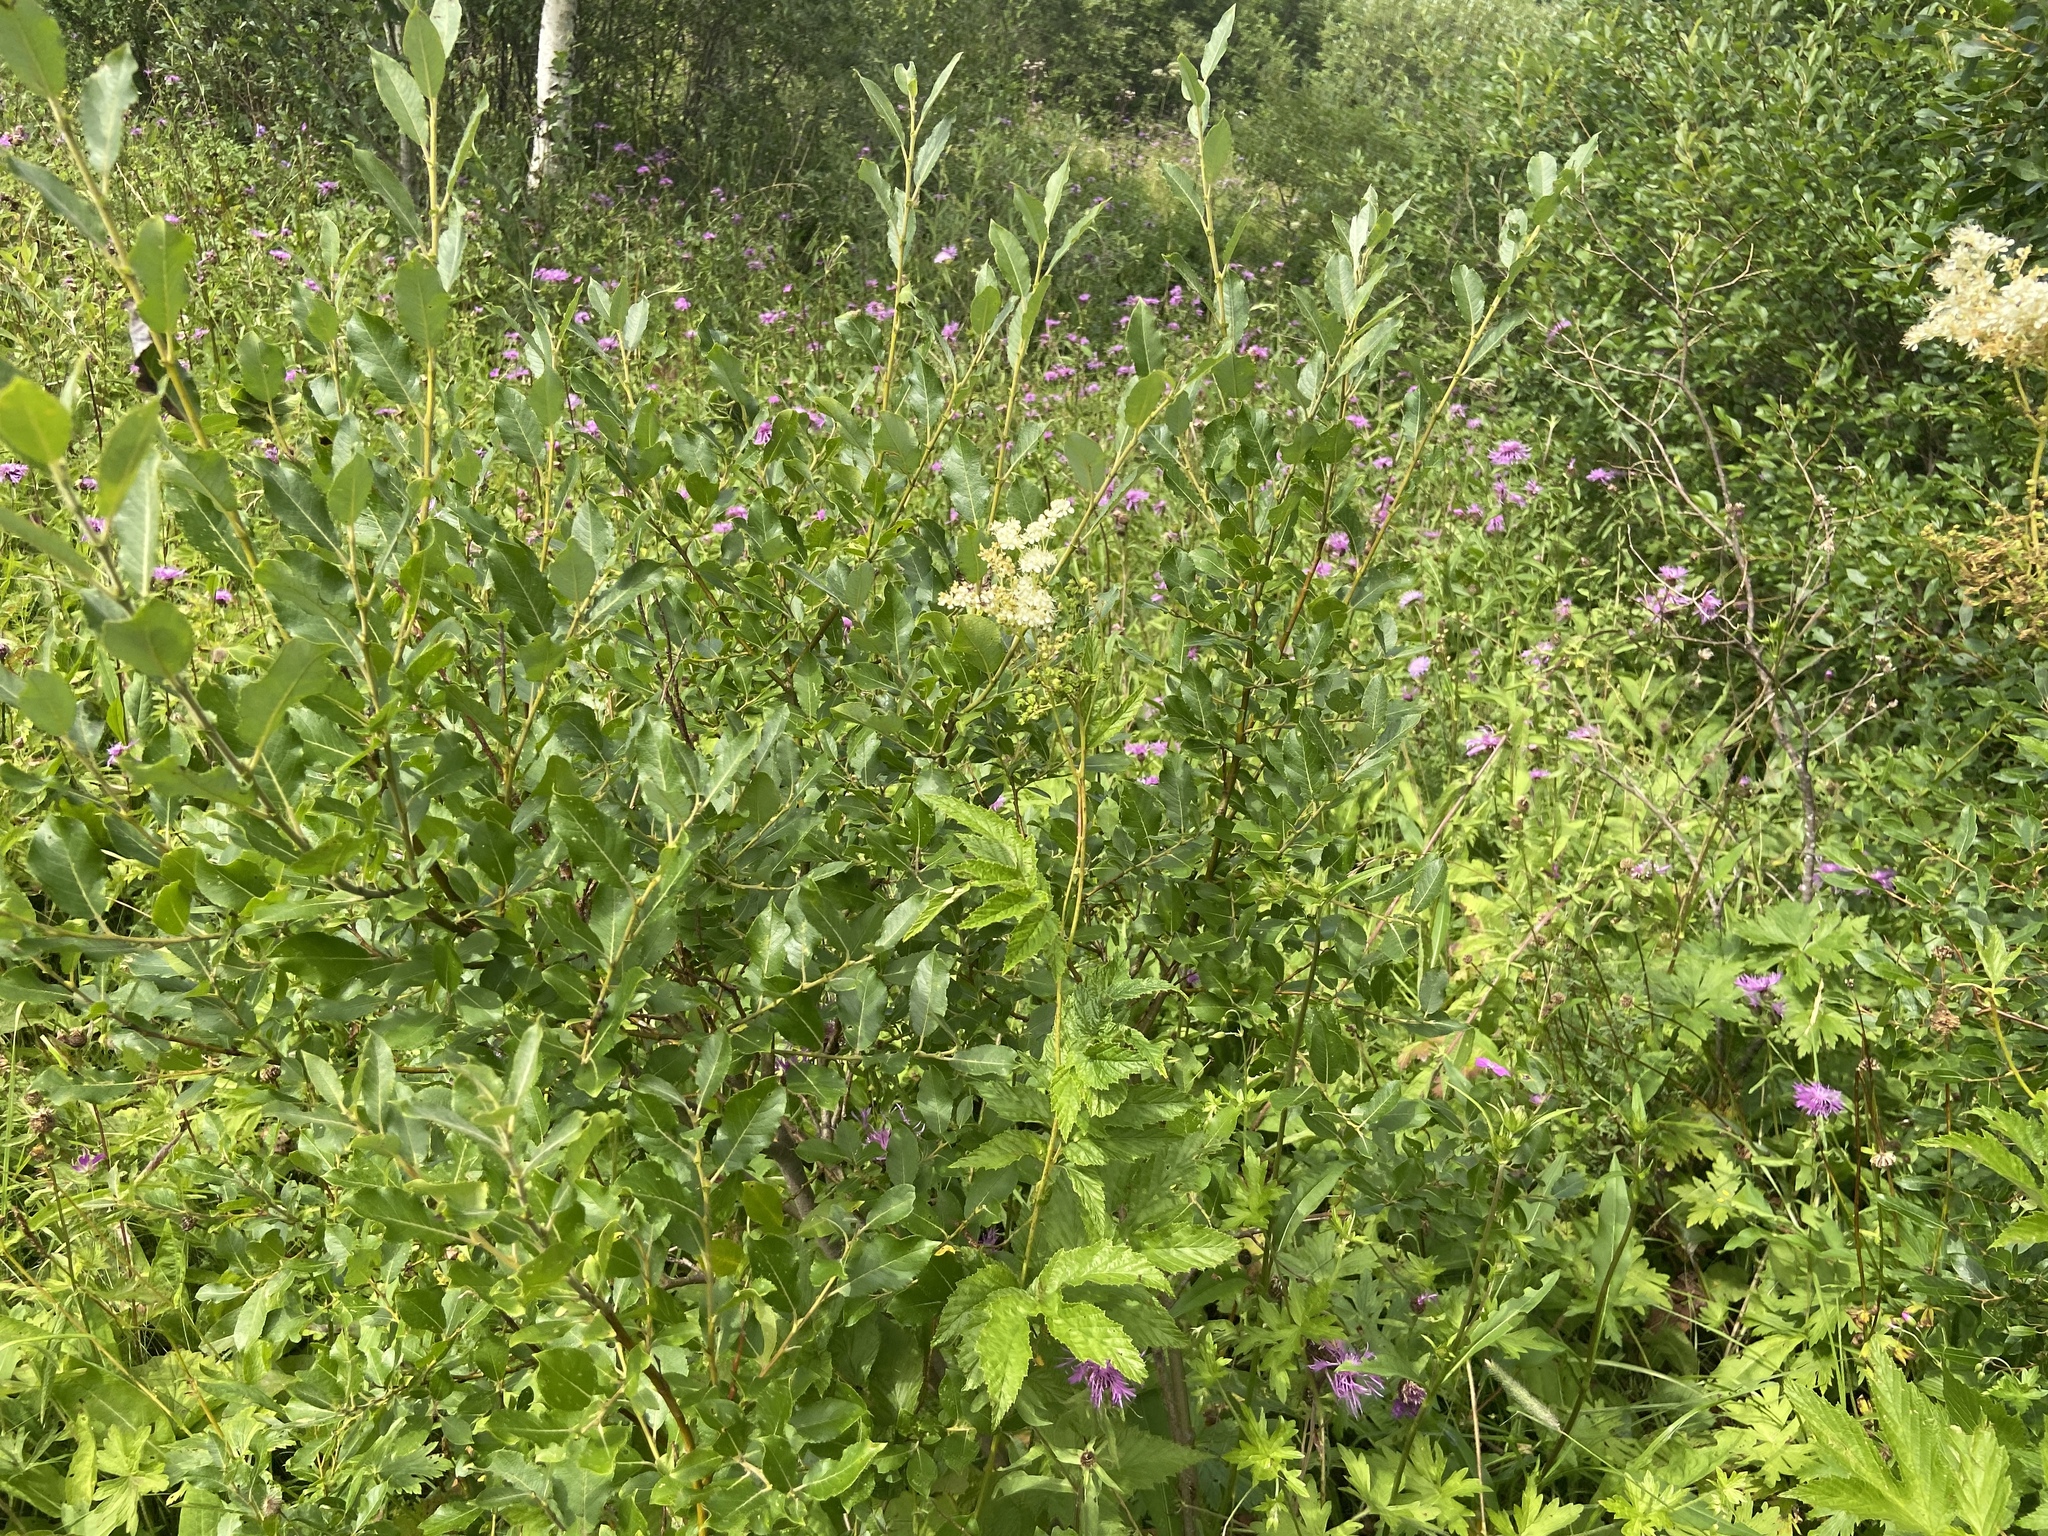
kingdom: Plantae
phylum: Tracheophyta
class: Magnoliopsida
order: Malpighiales
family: Salicaceae
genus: Salix
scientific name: Salix myrsinifolia
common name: Dark-leaved willow
